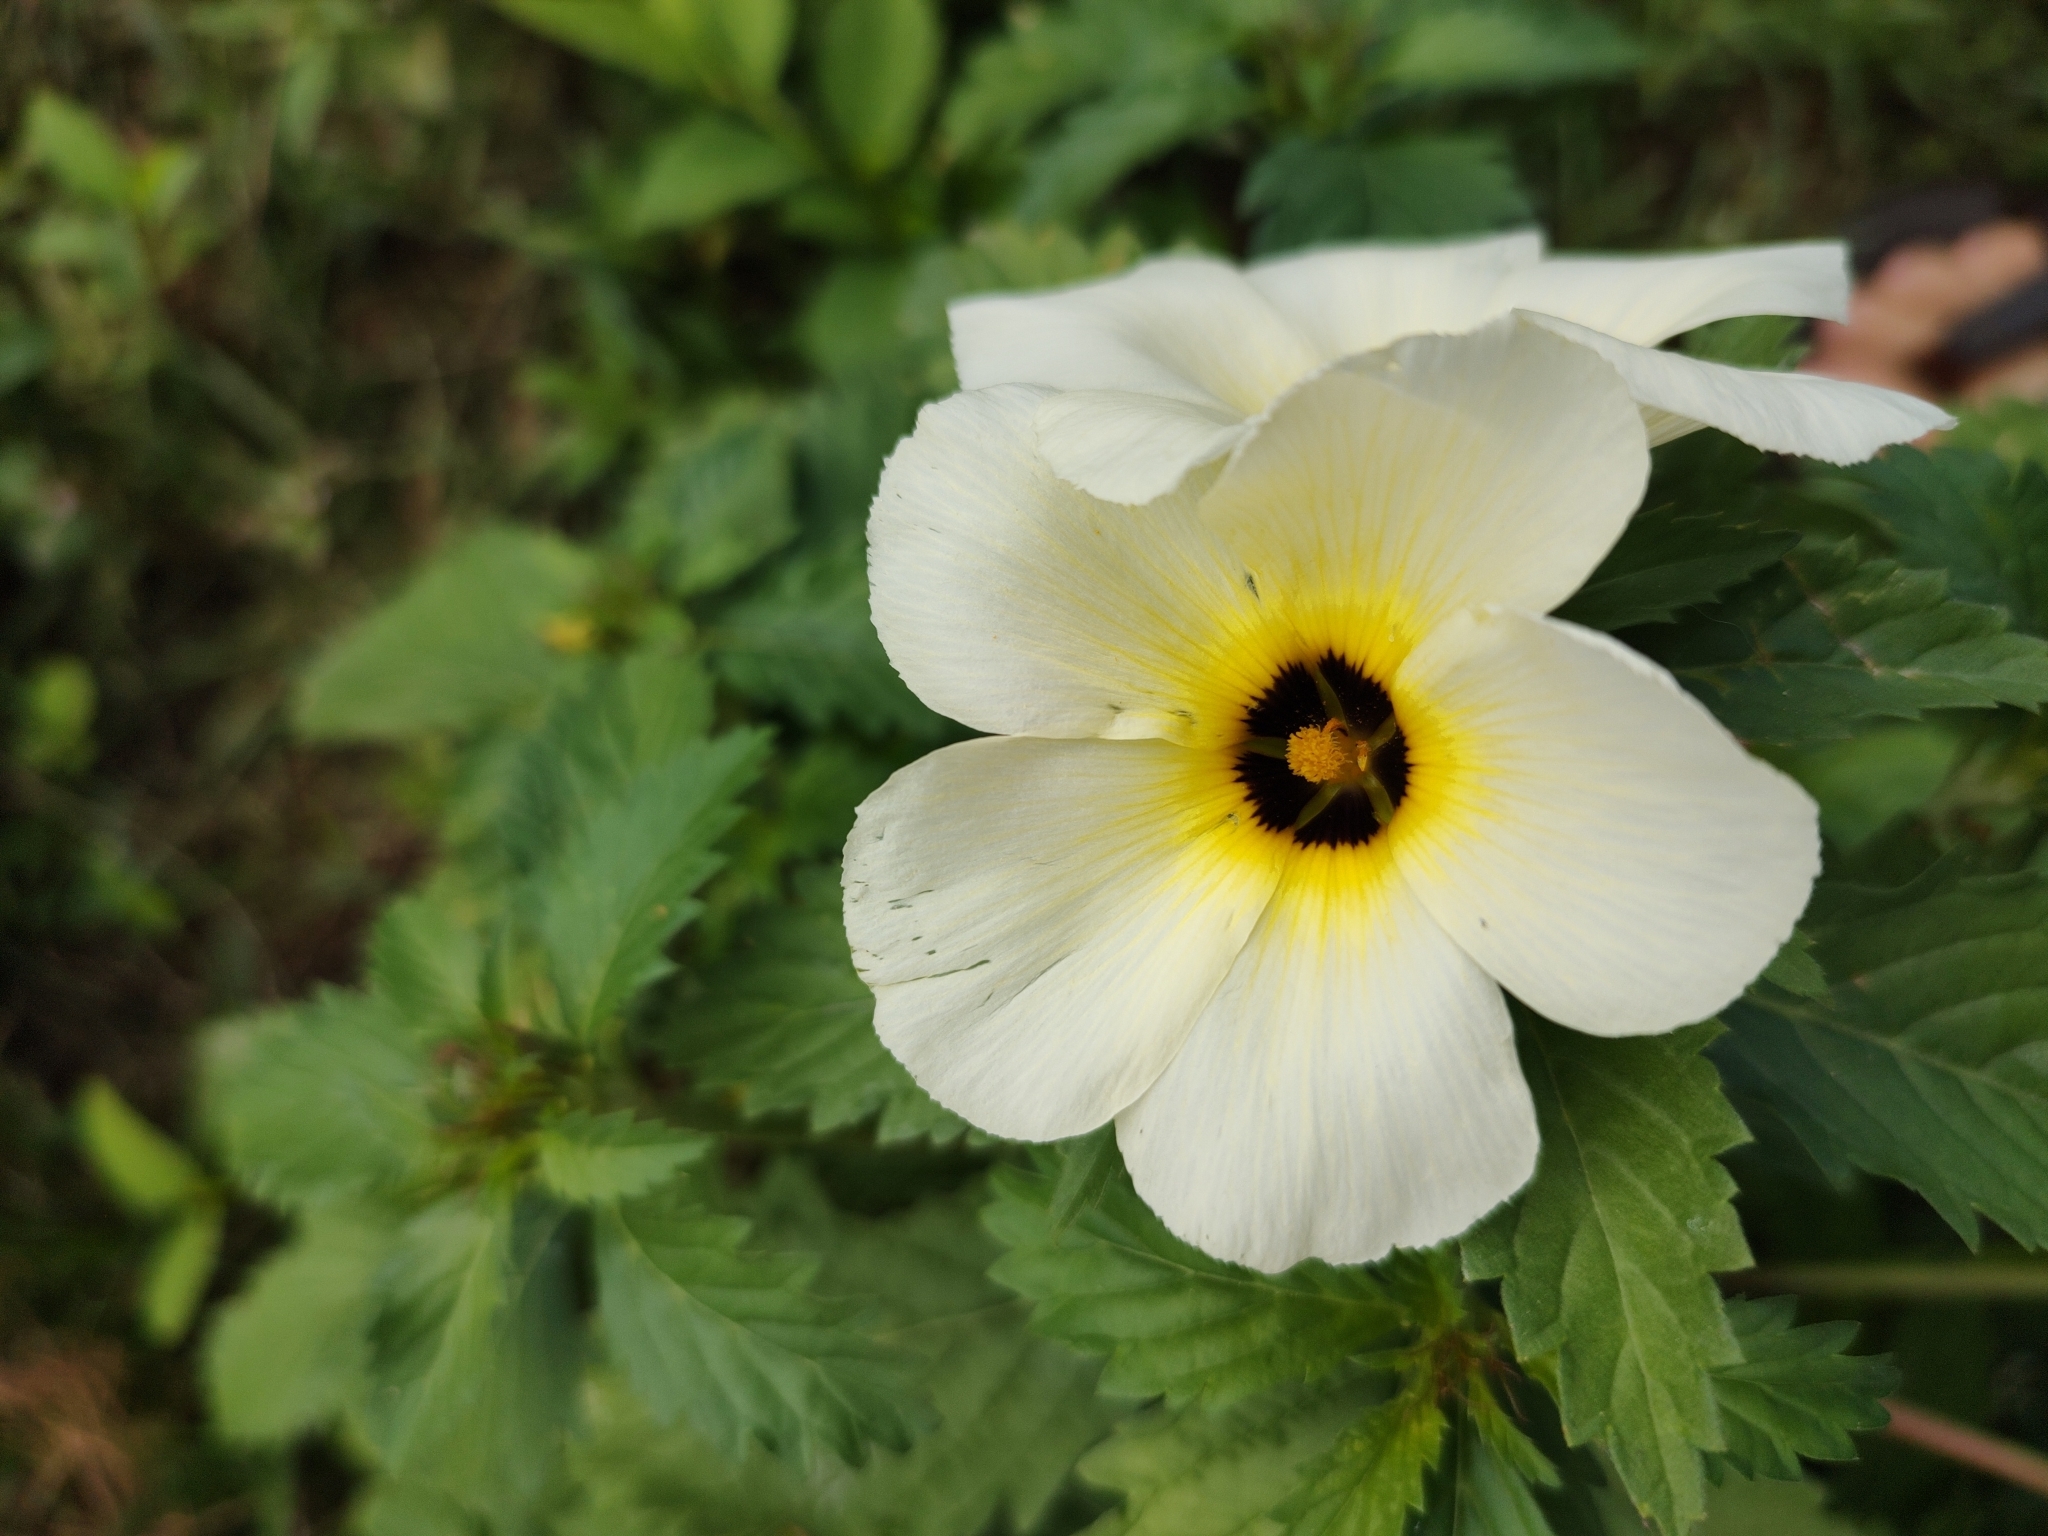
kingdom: Plantae
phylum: Tracheophyta
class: Magnoliopsida
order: Malpighiales
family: Turneraceae
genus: Turnera
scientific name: Turnera subulata
